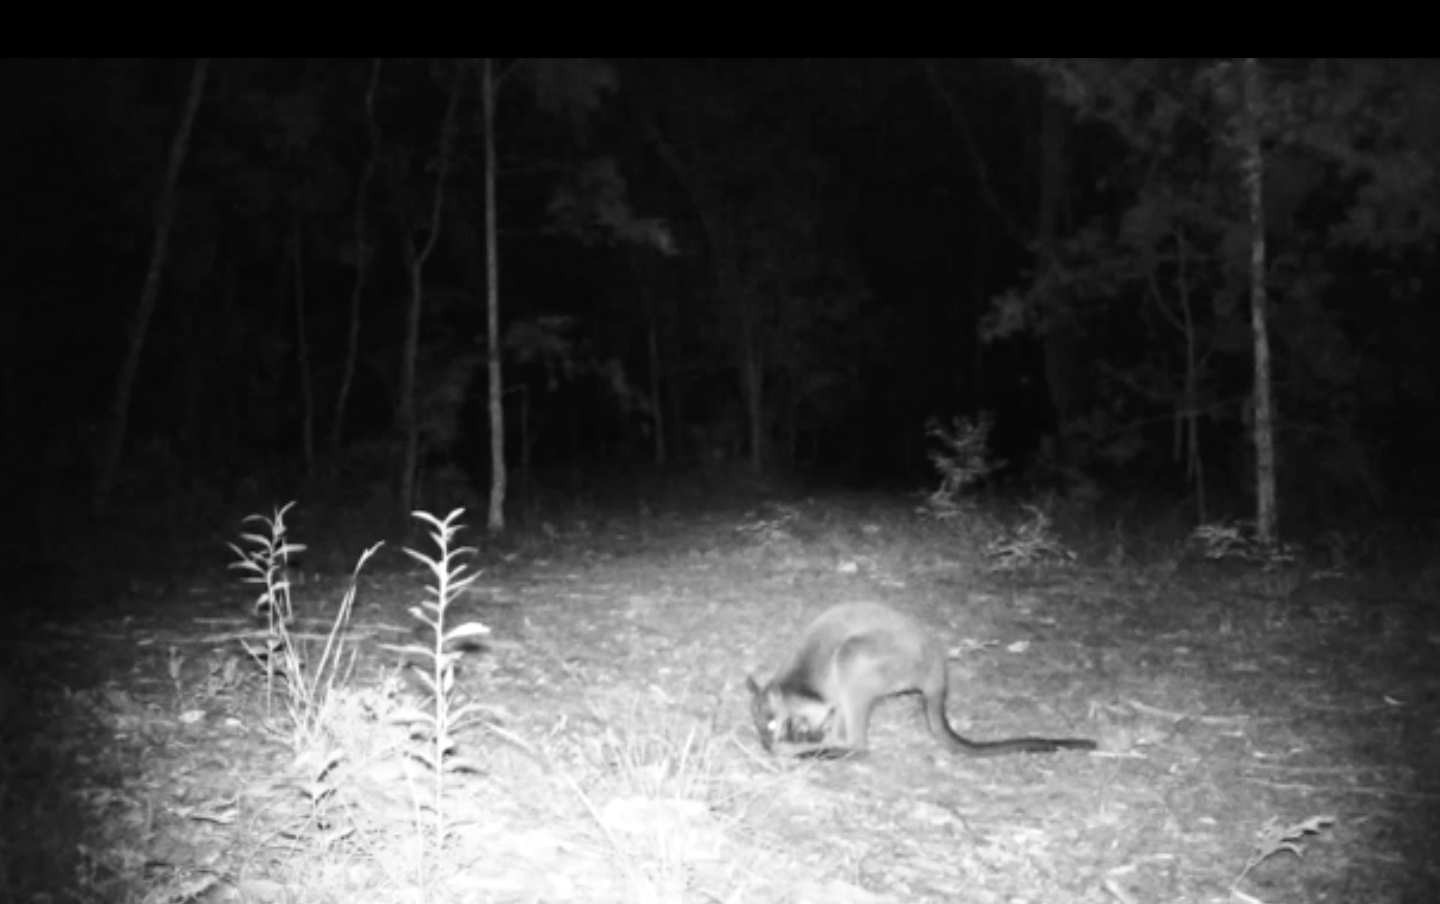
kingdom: Animalia
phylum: Chordata
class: Mammalia
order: Diprotodontia
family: Macropodidae
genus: Wallabia
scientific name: Wallabia bicolor
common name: Swamp wallaby
